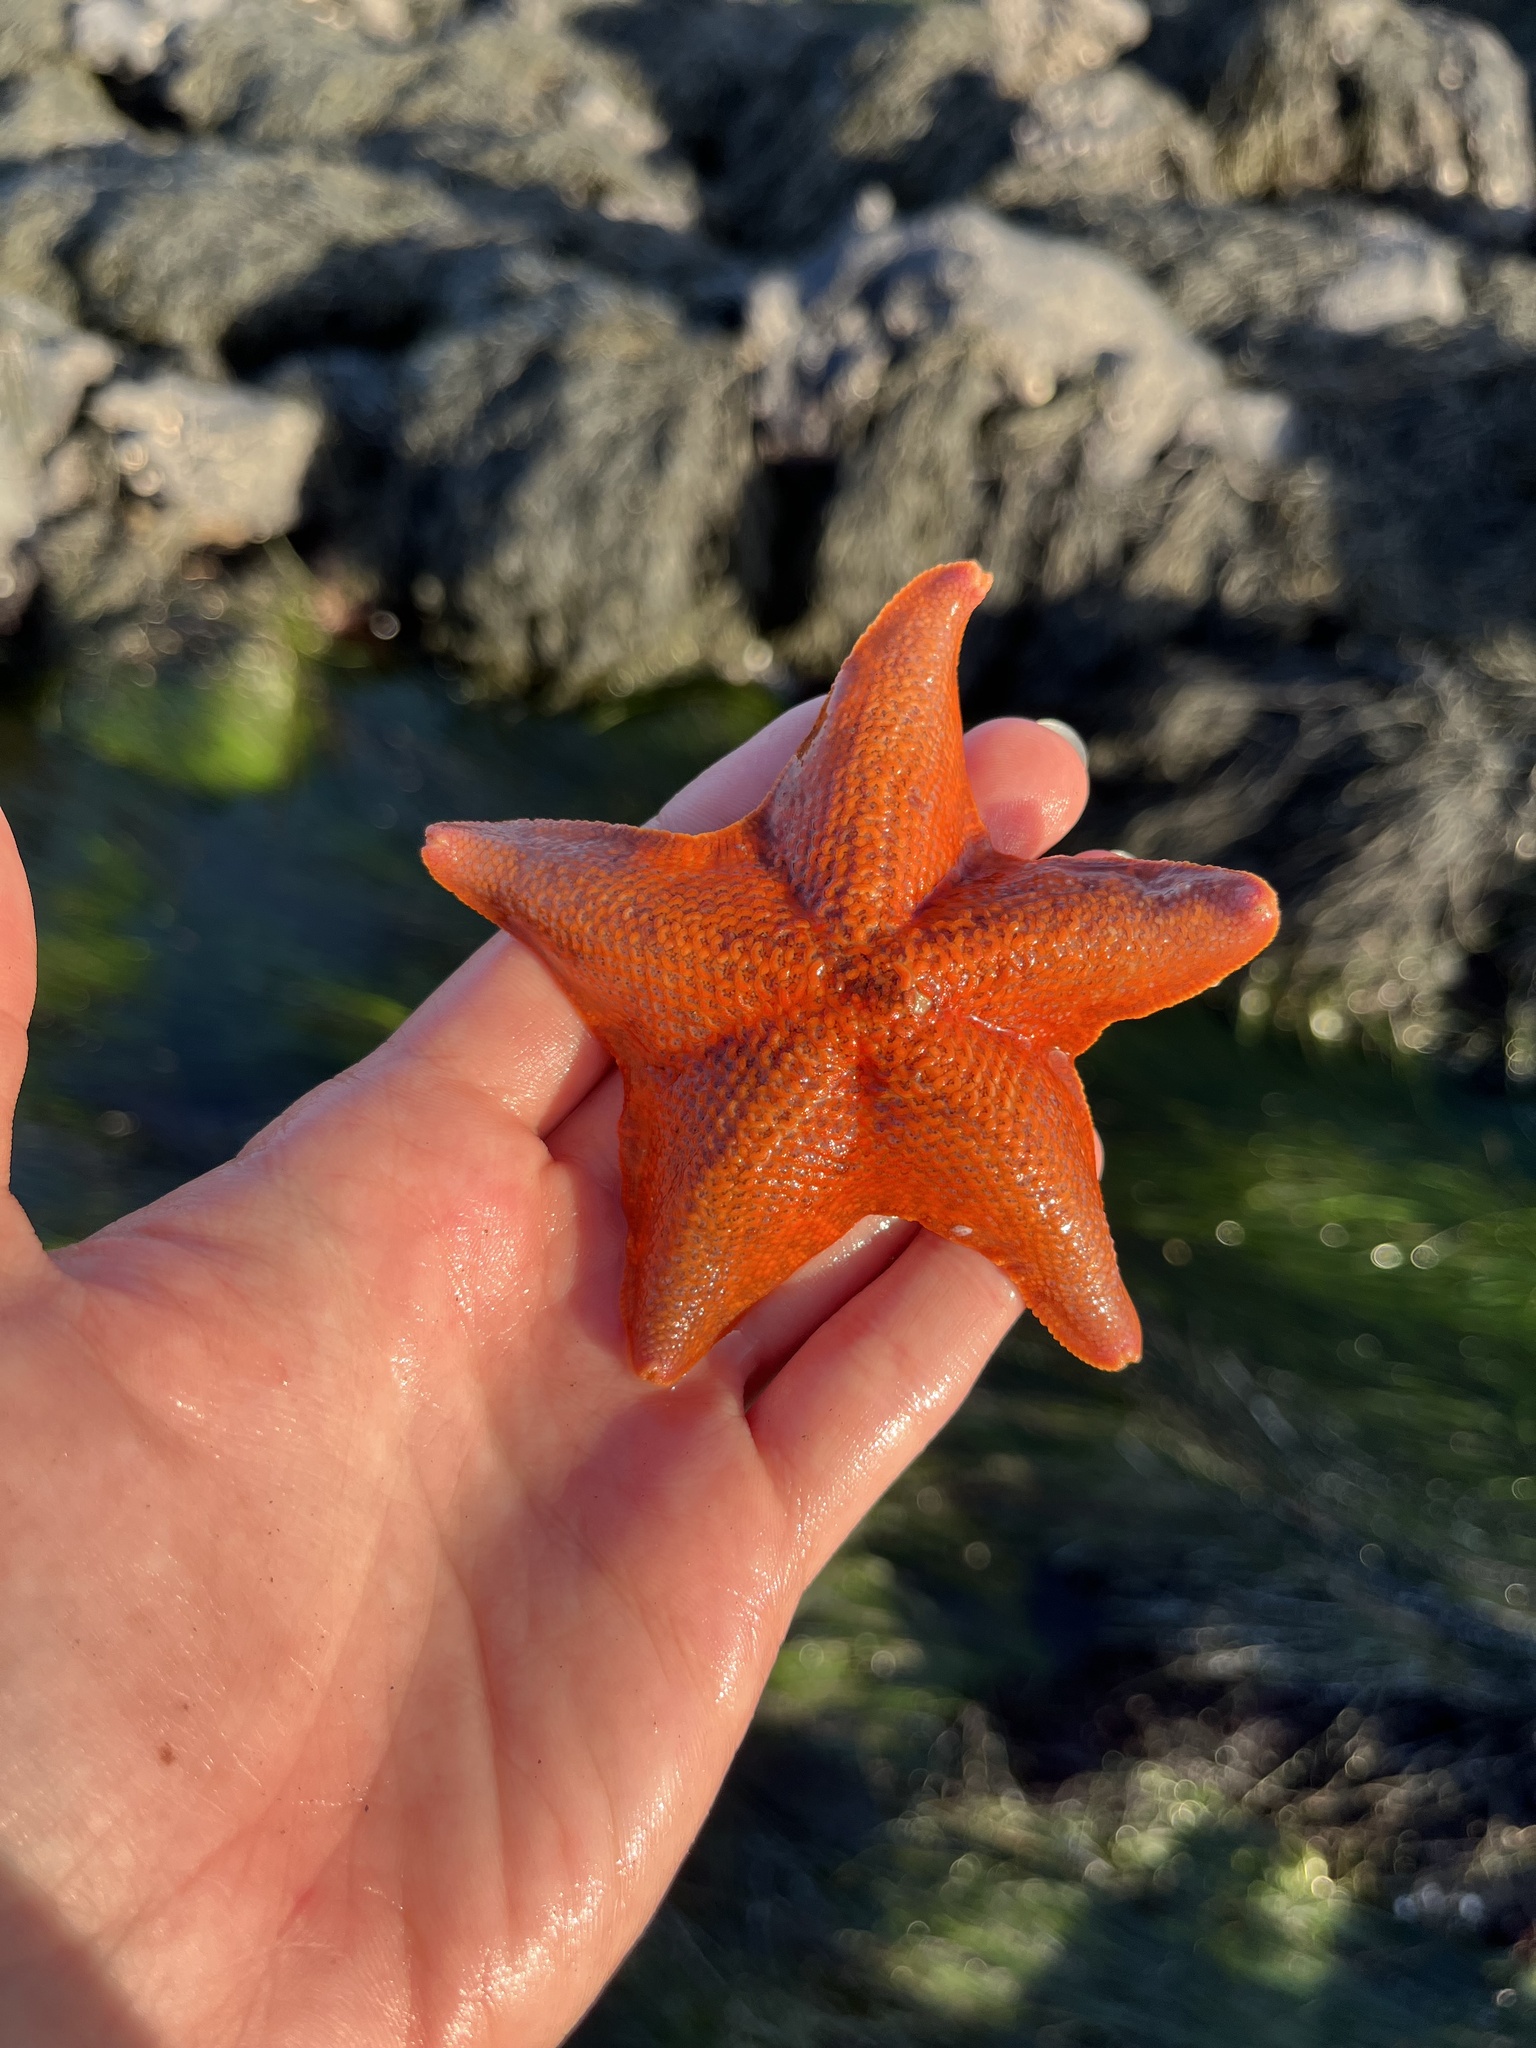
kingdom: Animalia
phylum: Echinodermata
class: Asteroidea
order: Valvatida
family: Asterinidae
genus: Patiria
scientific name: Patiria miniata
